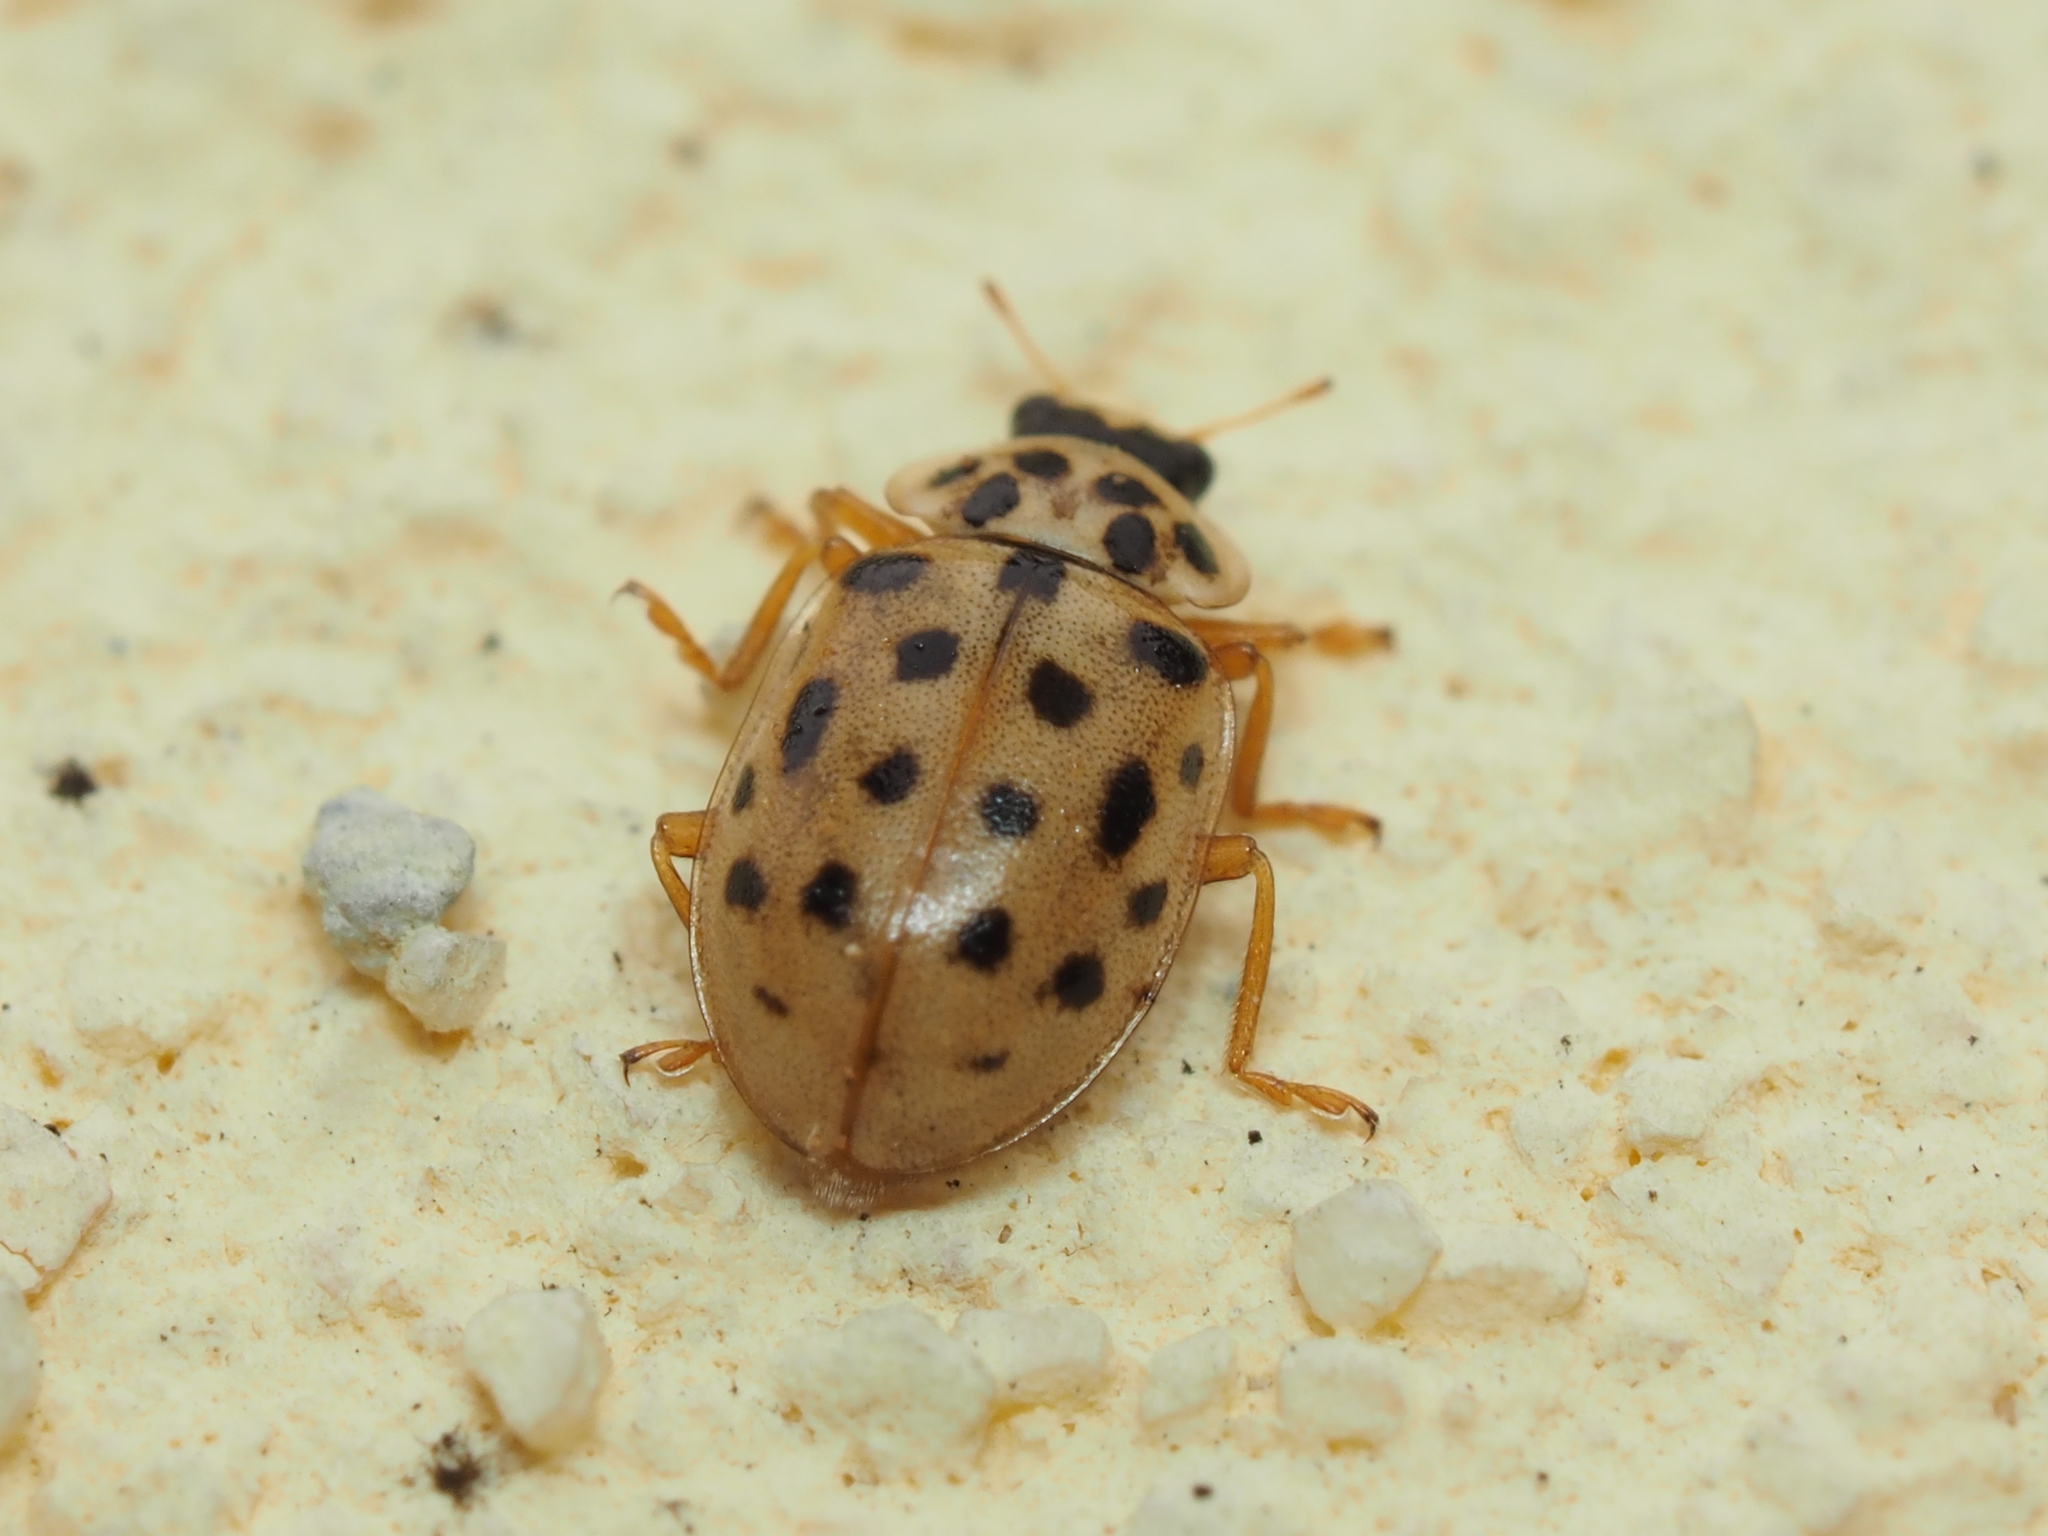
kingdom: Animalia
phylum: Arthropoda
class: Insecta
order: Coleoptera
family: Coccinellidae
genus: Anisosticta
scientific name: Anisosticta novemdecimpunctata
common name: Water ladybird
